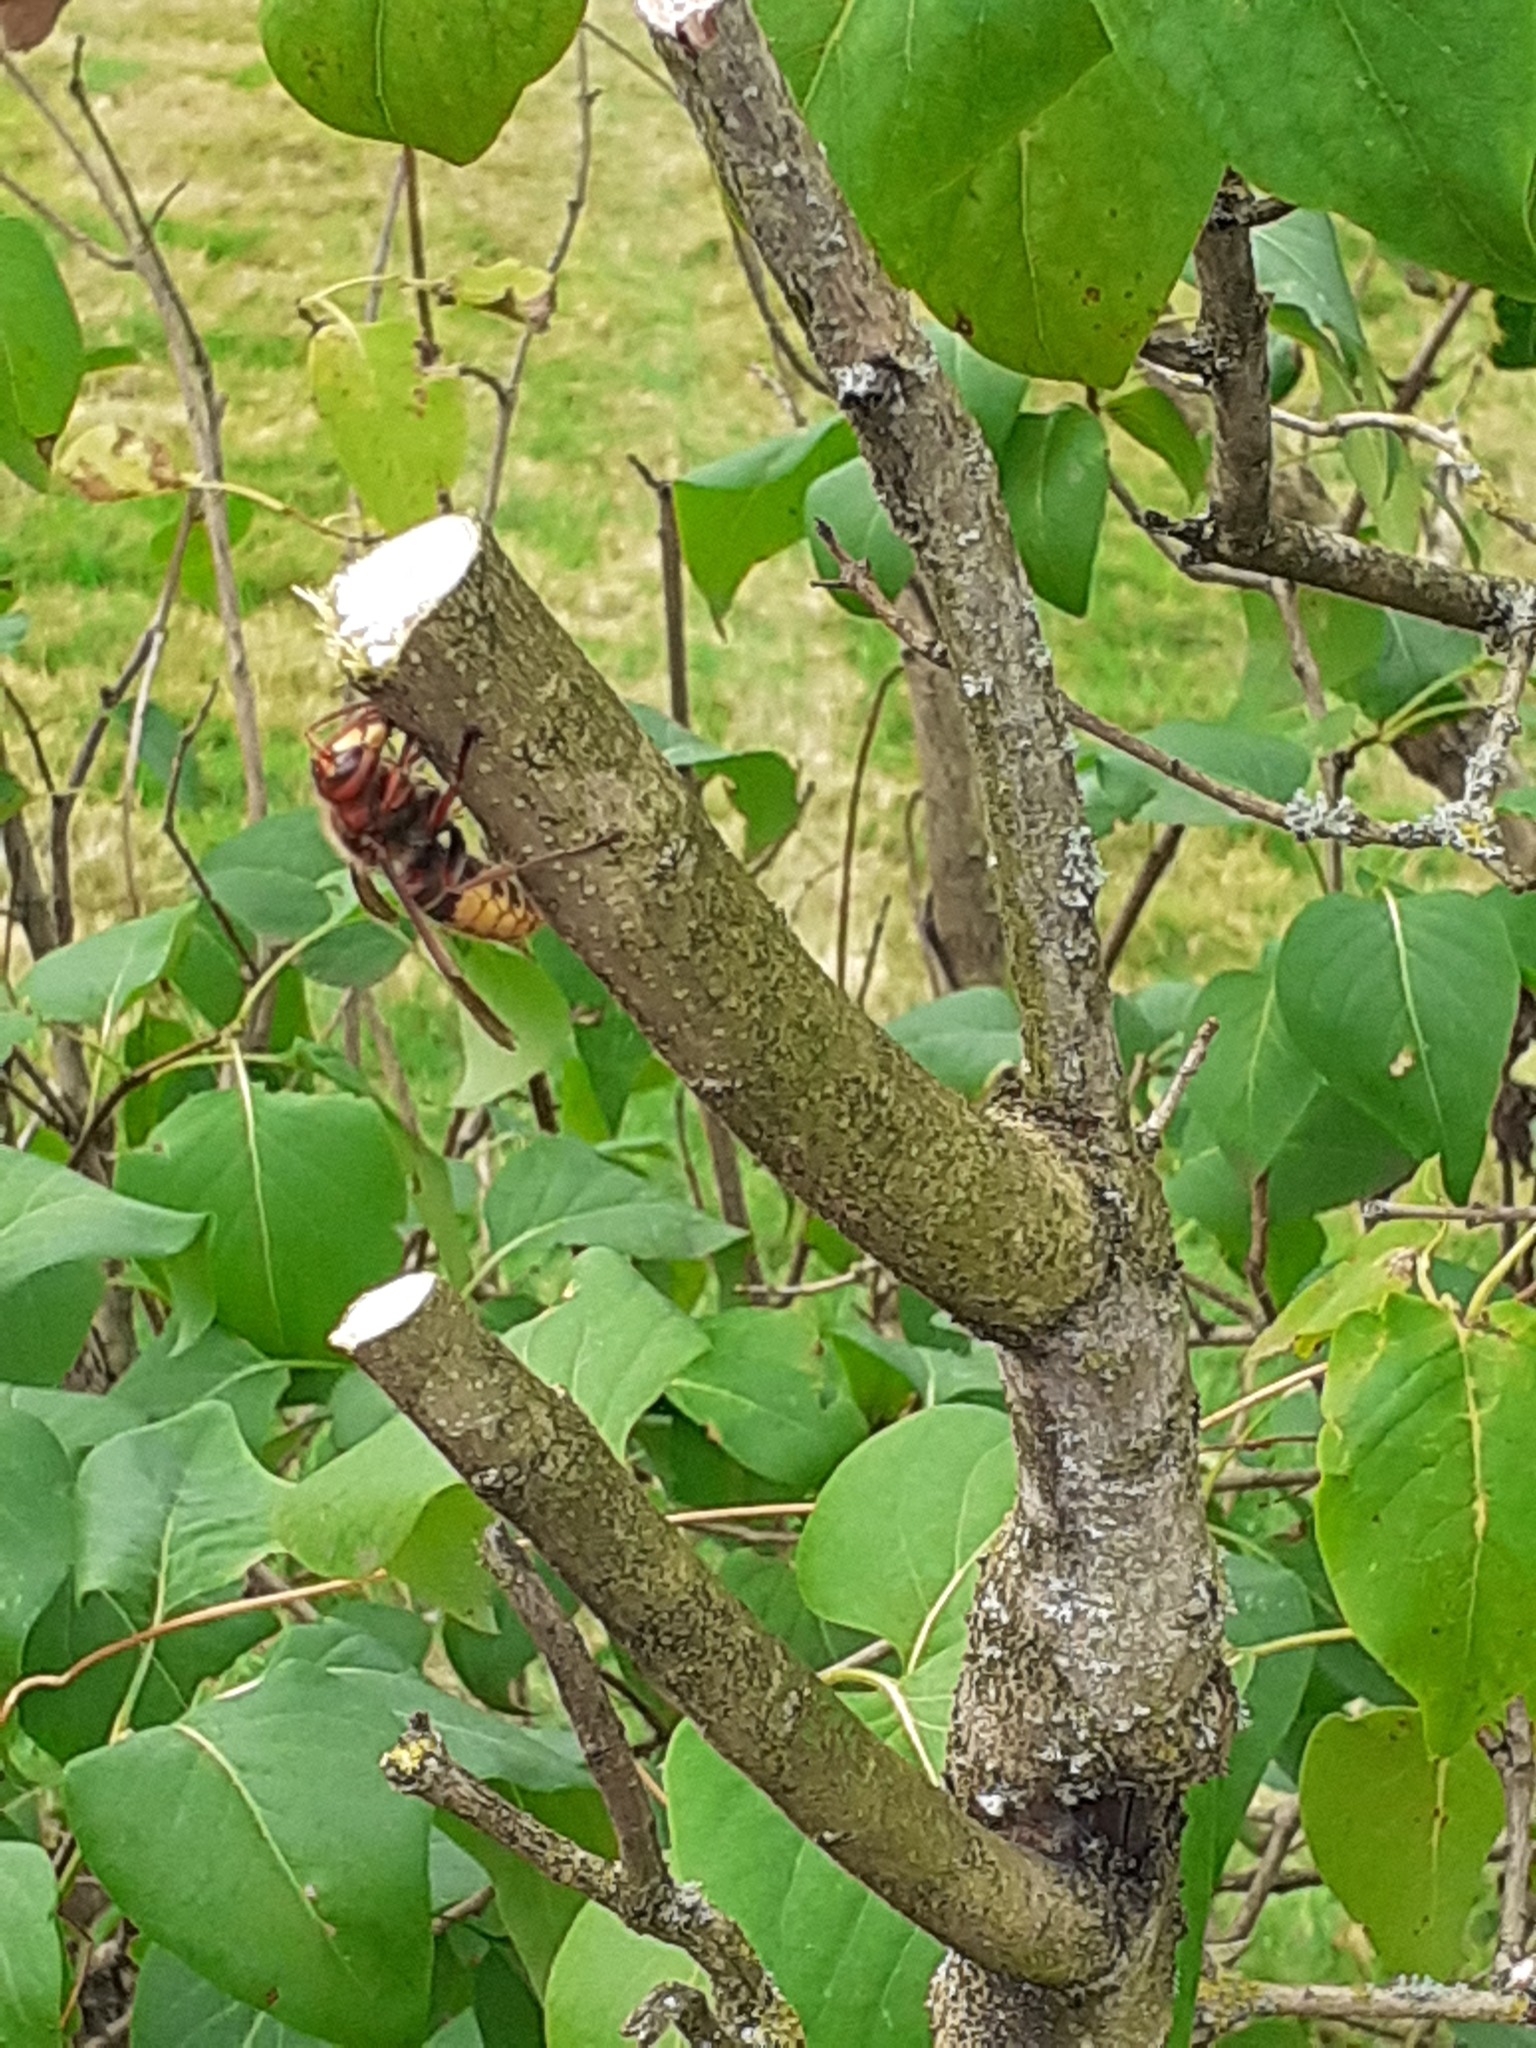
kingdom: Animalia
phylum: Arthropoda
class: Insecta
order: Hymenoptera
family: Vespidae
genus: Vespa
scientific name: Vespa crabro
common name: Hornet
